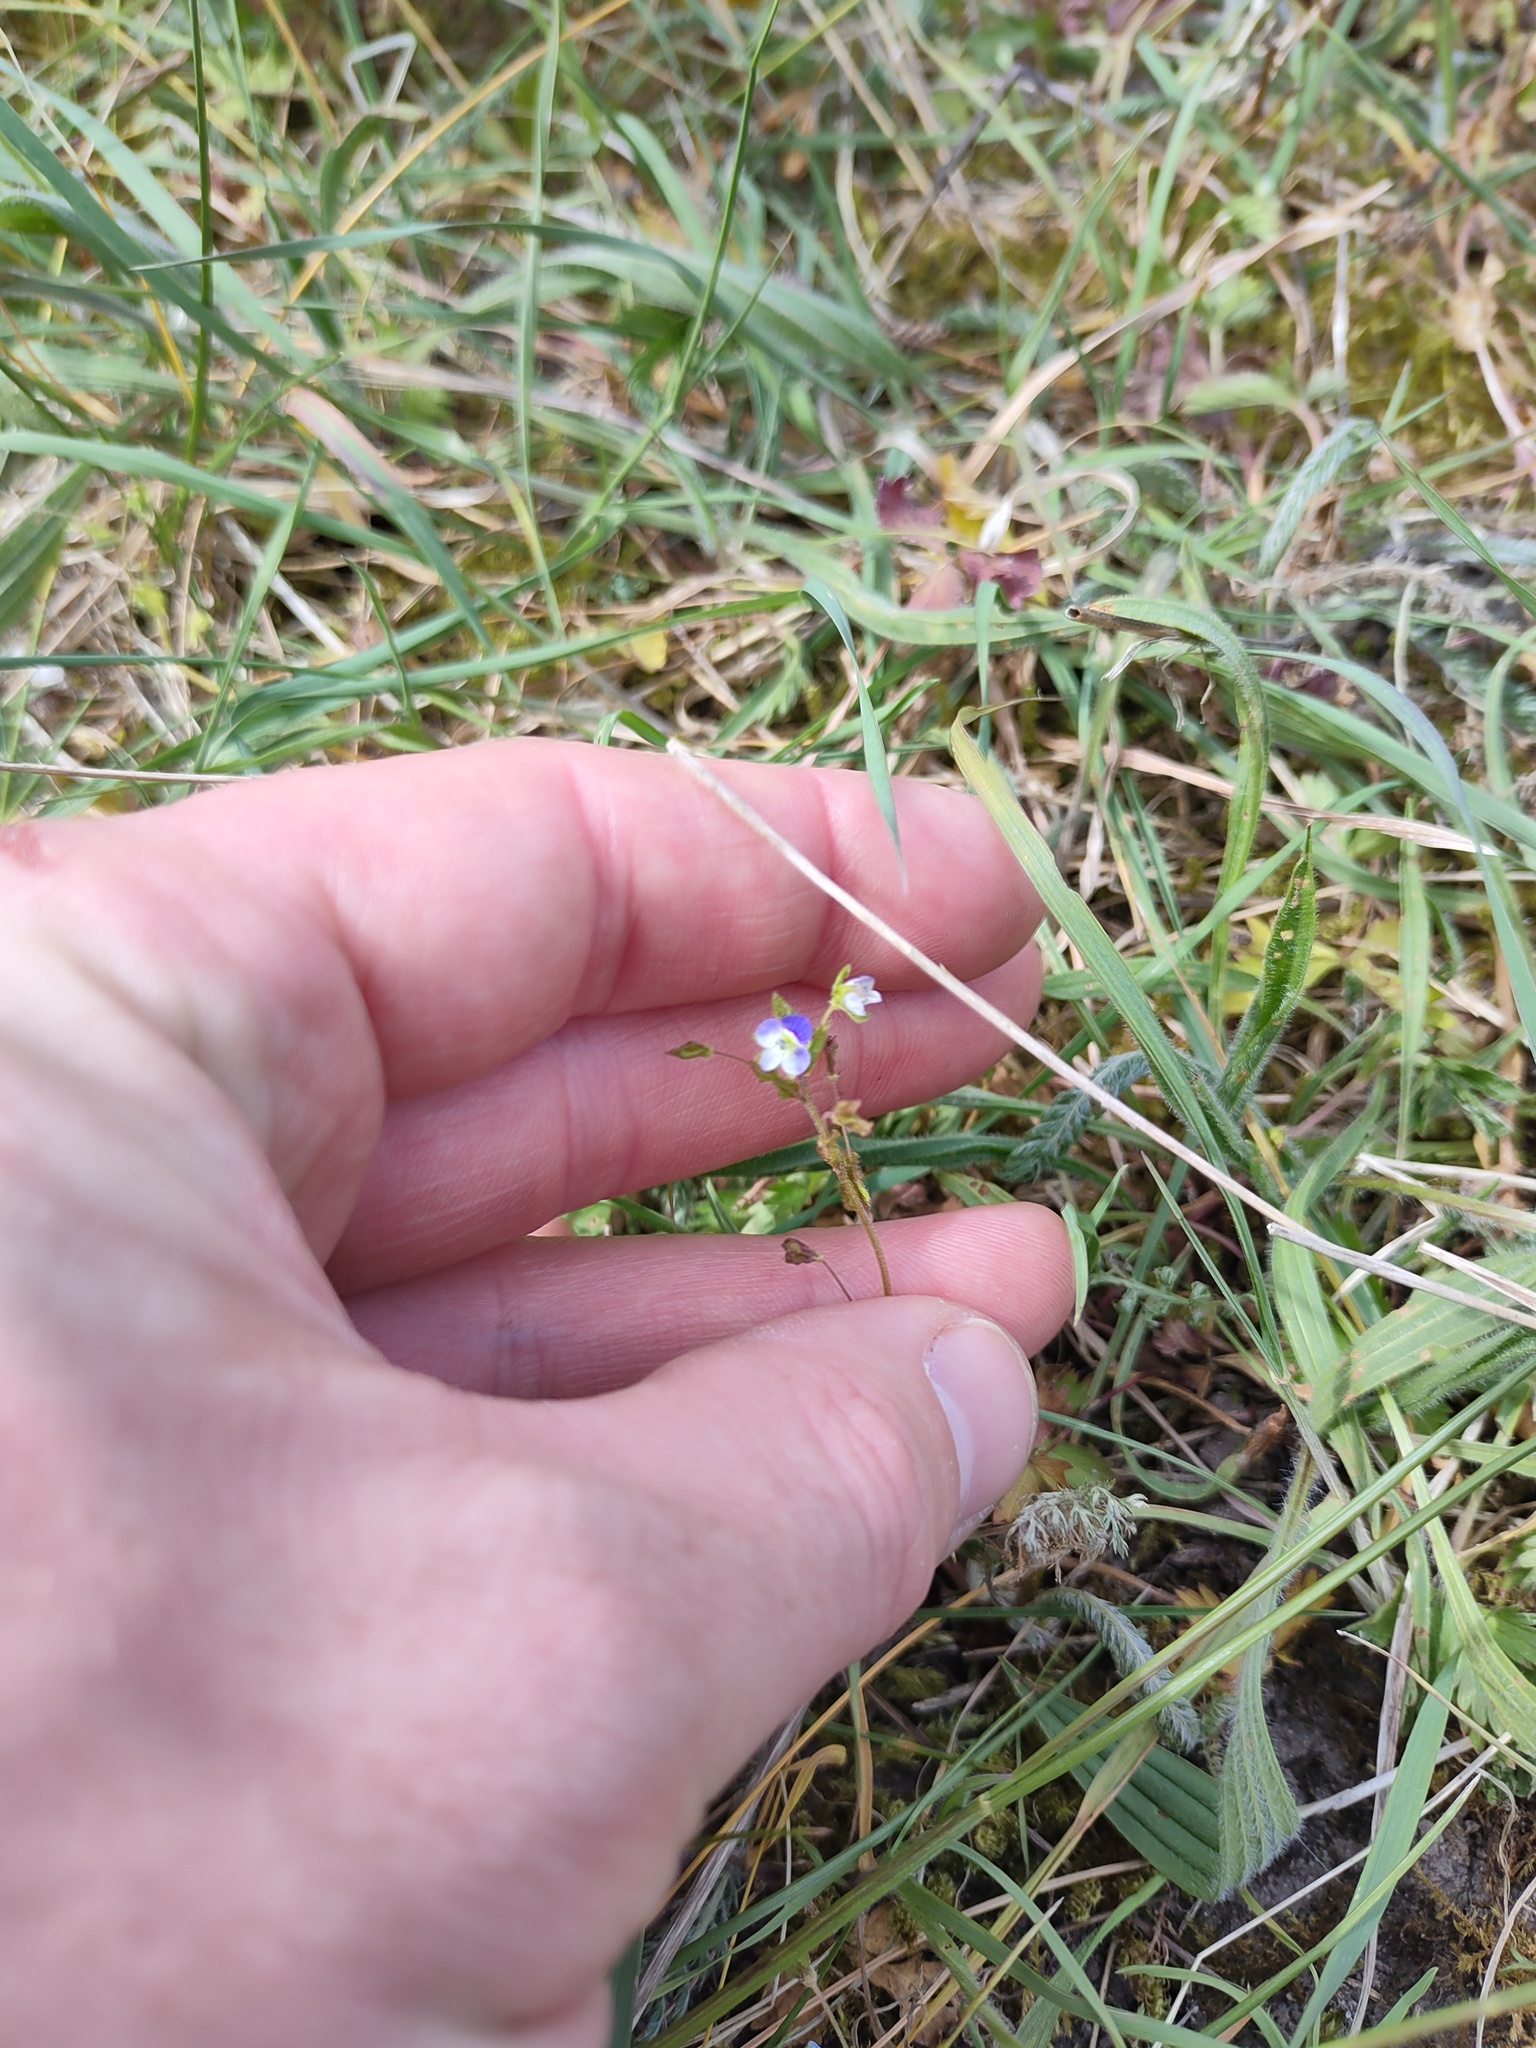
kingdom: Plantae
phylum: Tracheophyta
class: Magnoliopsida
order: Lamiales
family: Plantaginaceae
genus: Veronica
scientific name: Veronica persica
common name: Common field-speedwell
